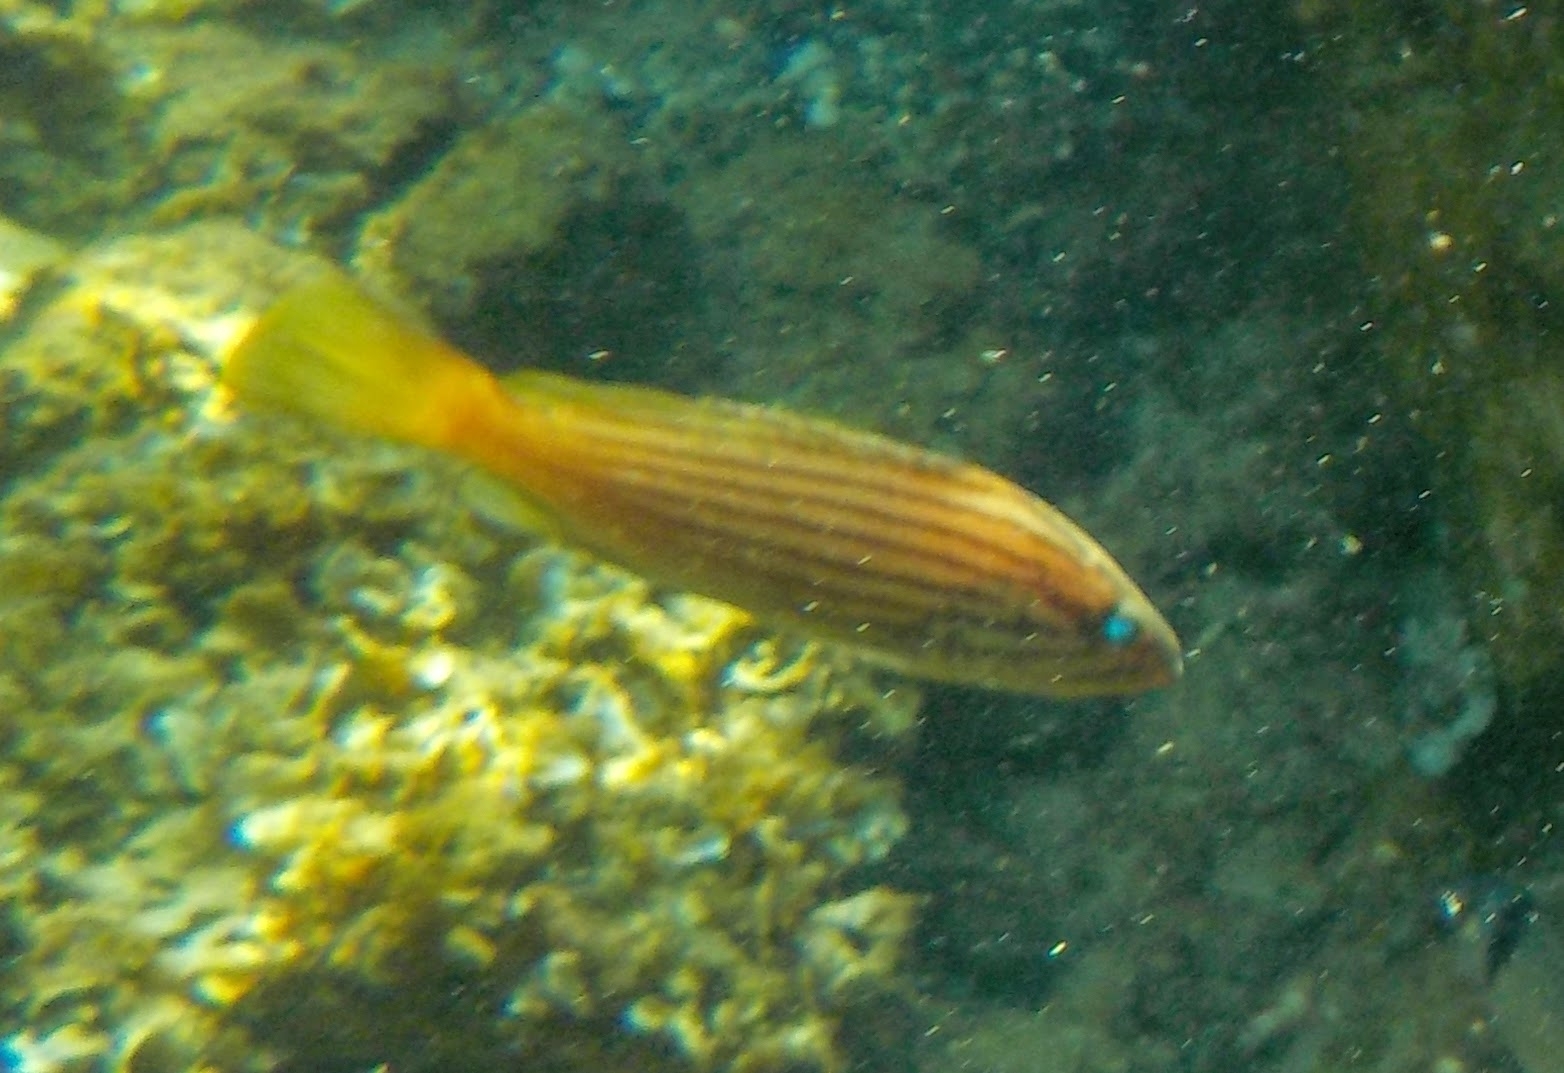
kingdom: Animalia
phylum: Chordata
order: Perciformes
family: Serranidae
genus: Epinephelus
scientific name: Epinephelus costae
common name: Goldblotch grouper
